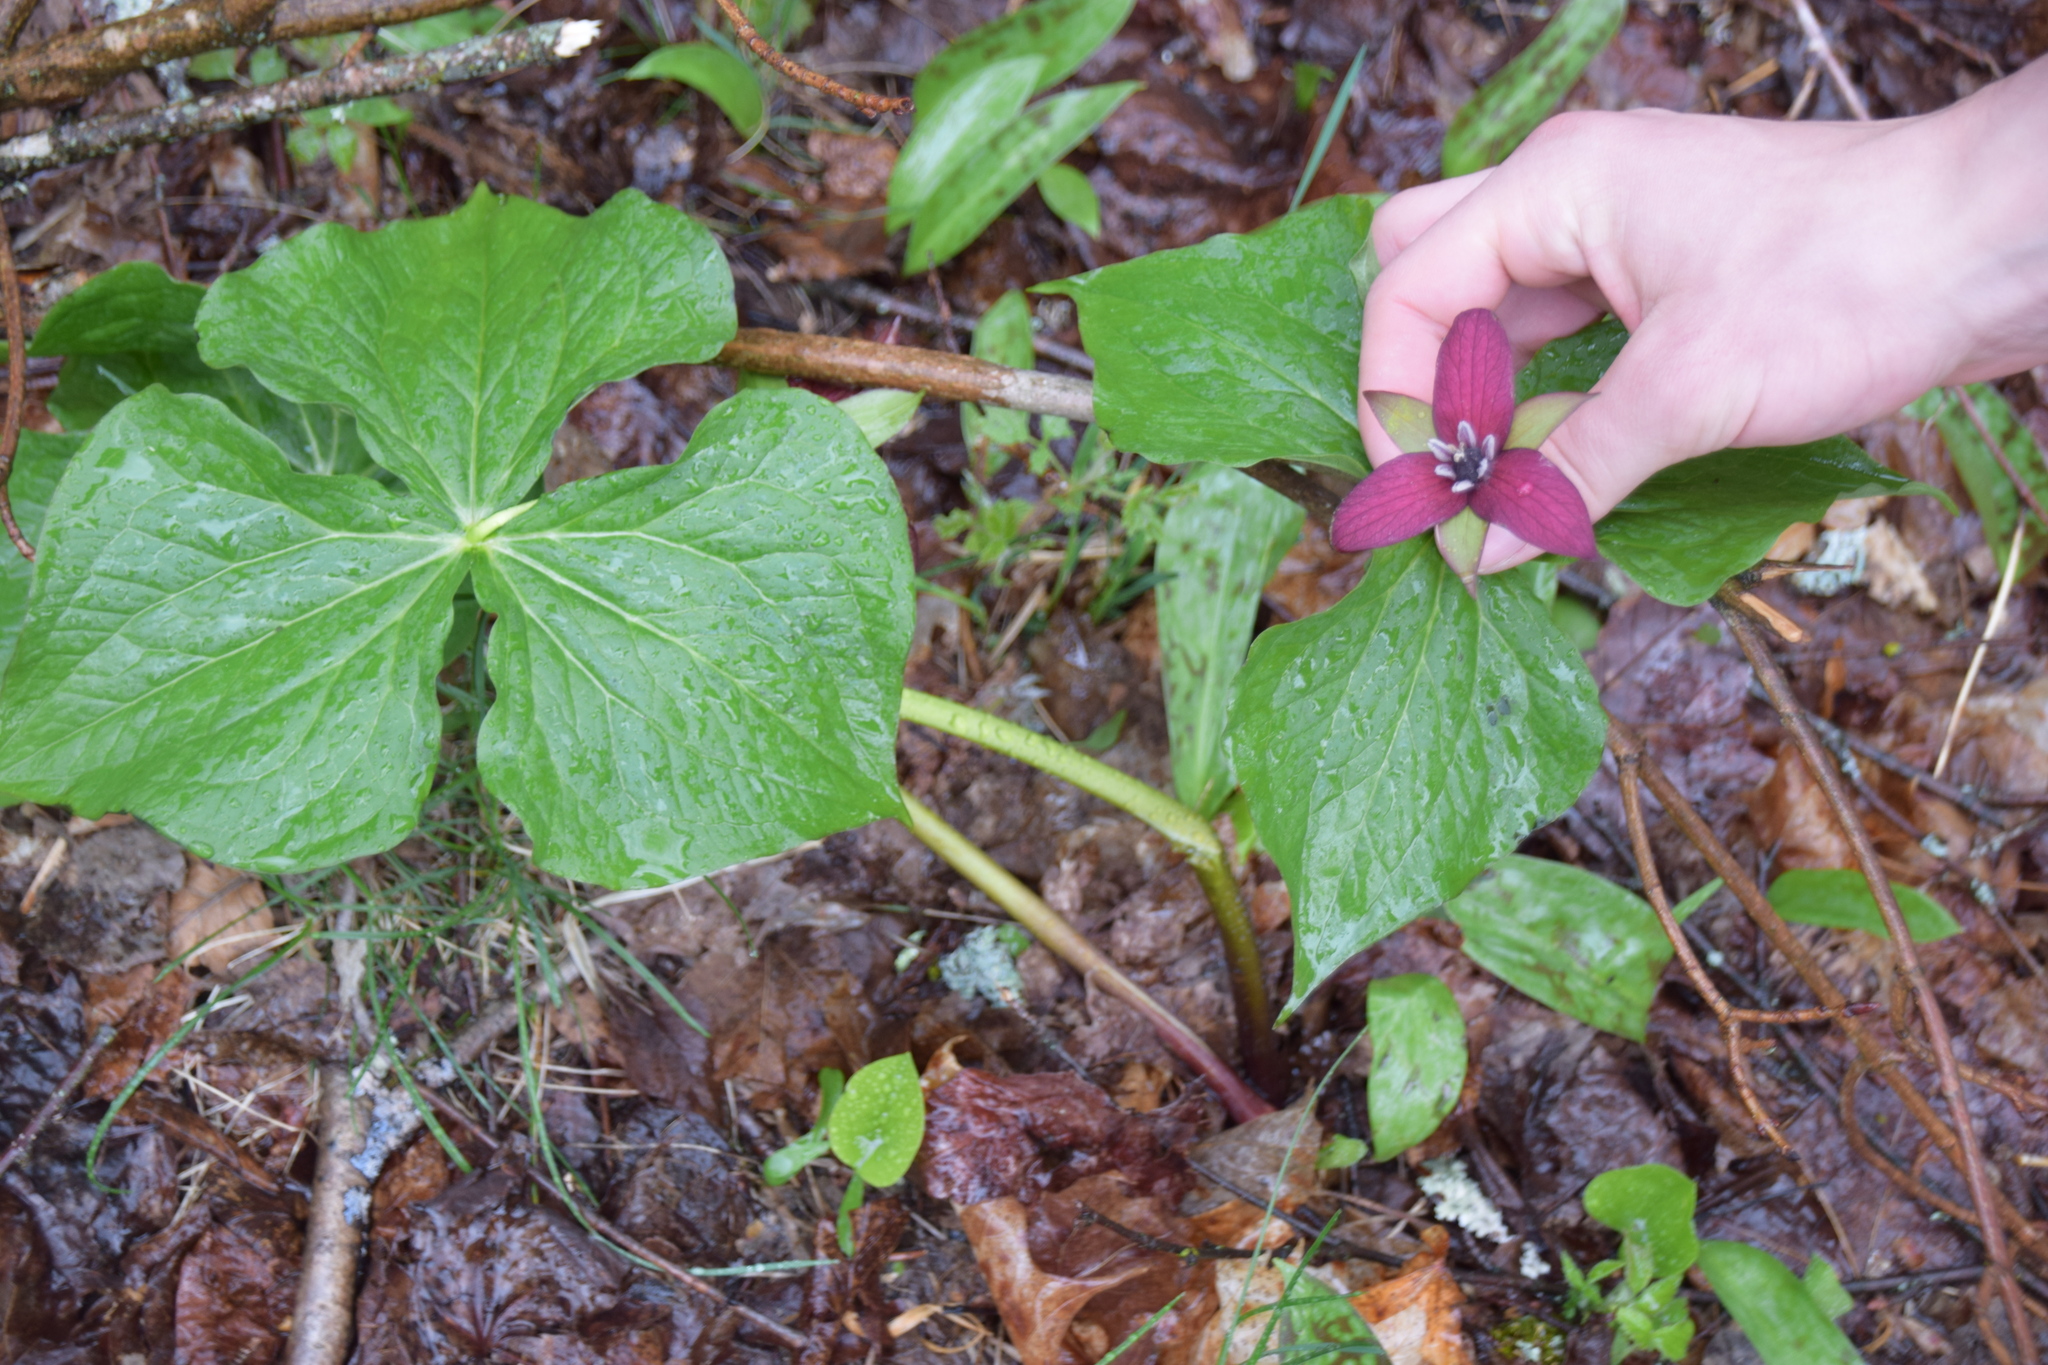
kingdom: Plantae
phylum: Tracheophyta
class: Liliopsida
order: Liliales
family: Melanthiaceae
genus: Trillium
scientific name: Trillium erectum
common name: Purple trillium
